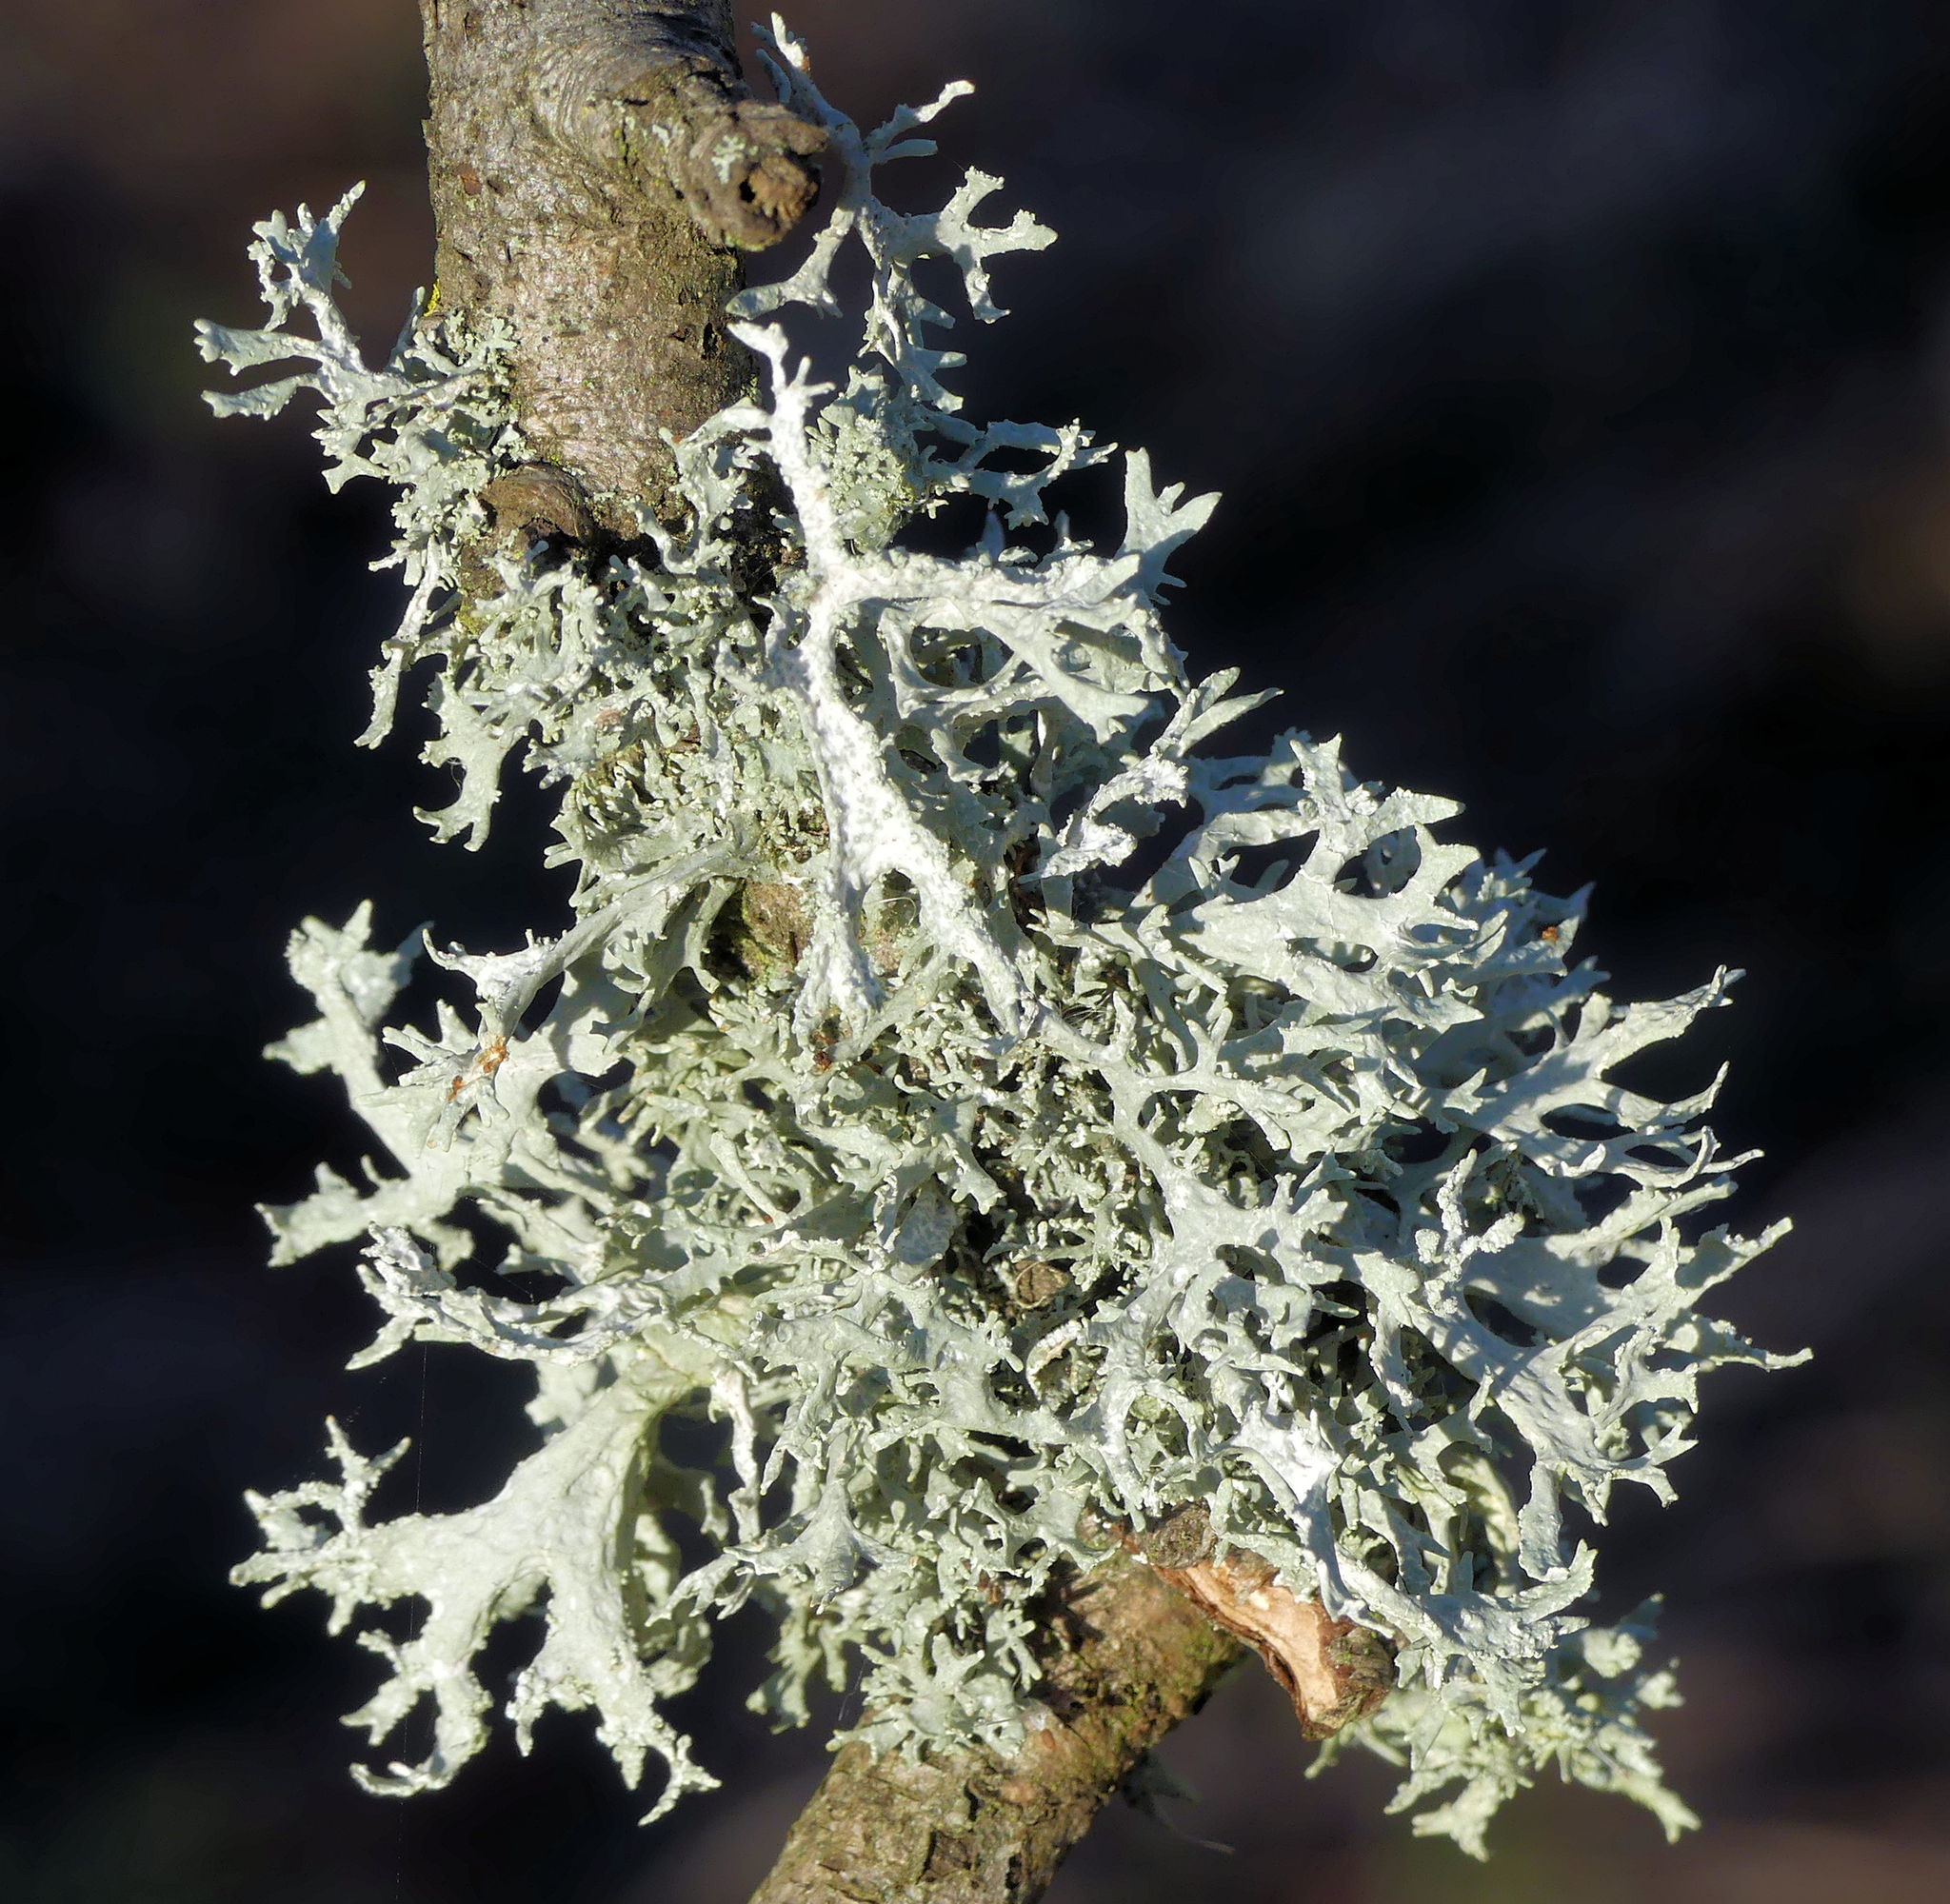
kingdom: Fungi
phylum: Ascomycota
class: Lecanoromycetes
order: Lecanorales
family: Parmeliaceae
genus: Evernia
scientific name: Evernia prunastri
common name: Oak moss
